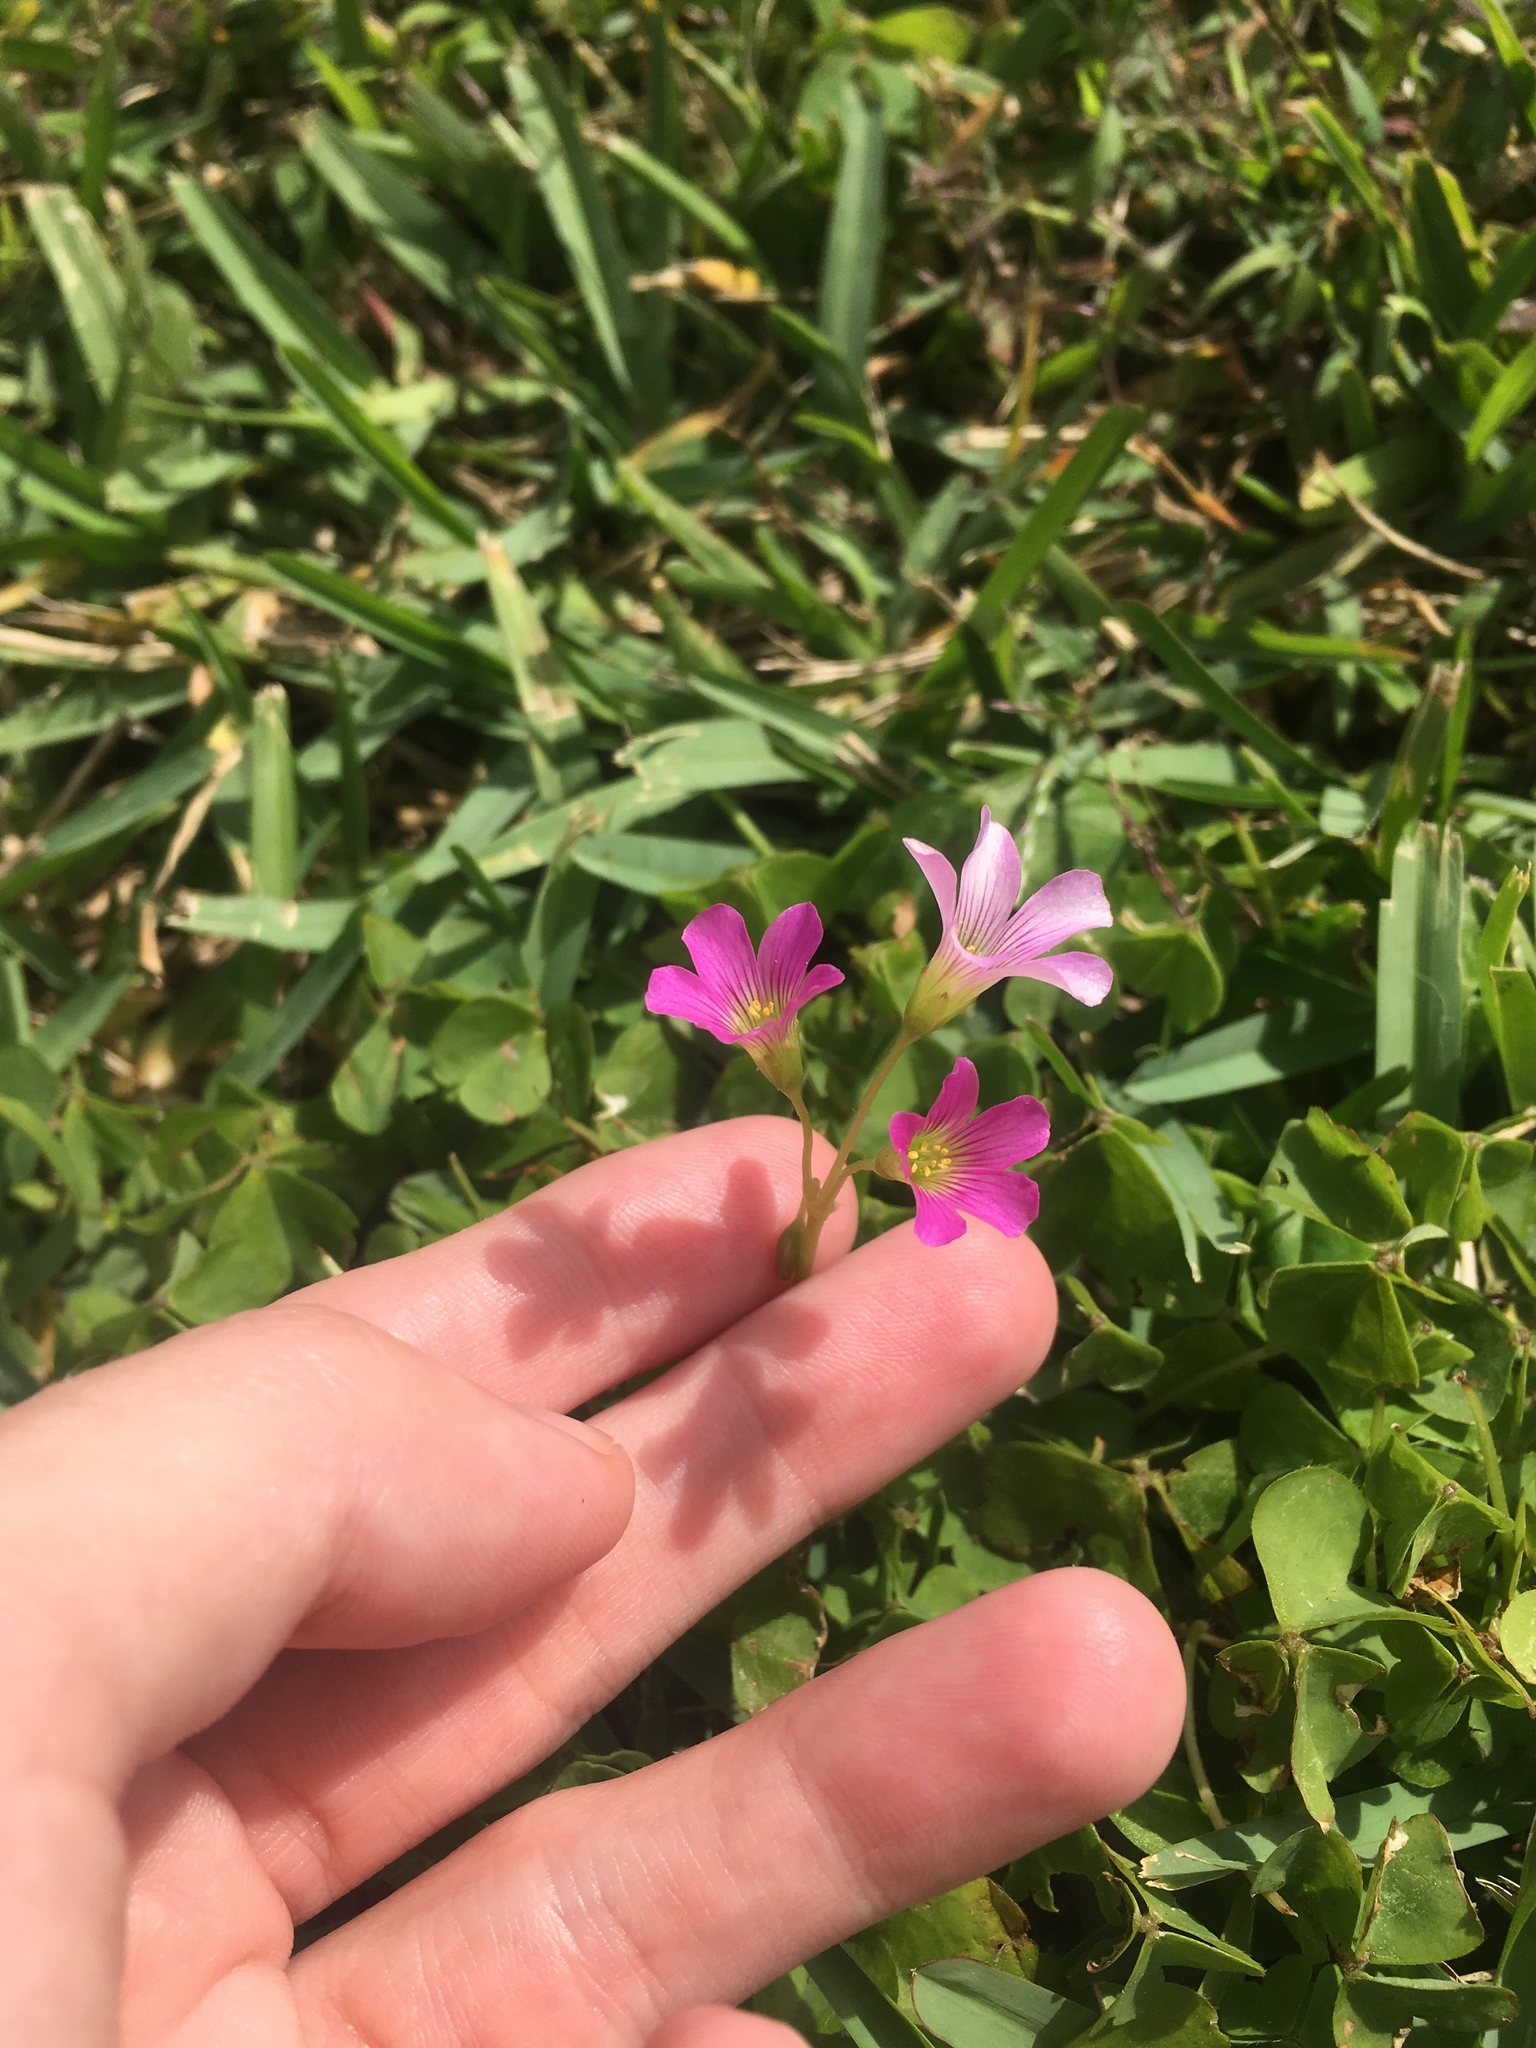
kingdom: Plantae
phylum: Tracheophyta
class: Magnoliopsida
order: Oxalidales
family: Oxalidaceae
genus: Oxalis
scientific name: Oxalis debilis
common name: Large-flowered pink-sorrel
